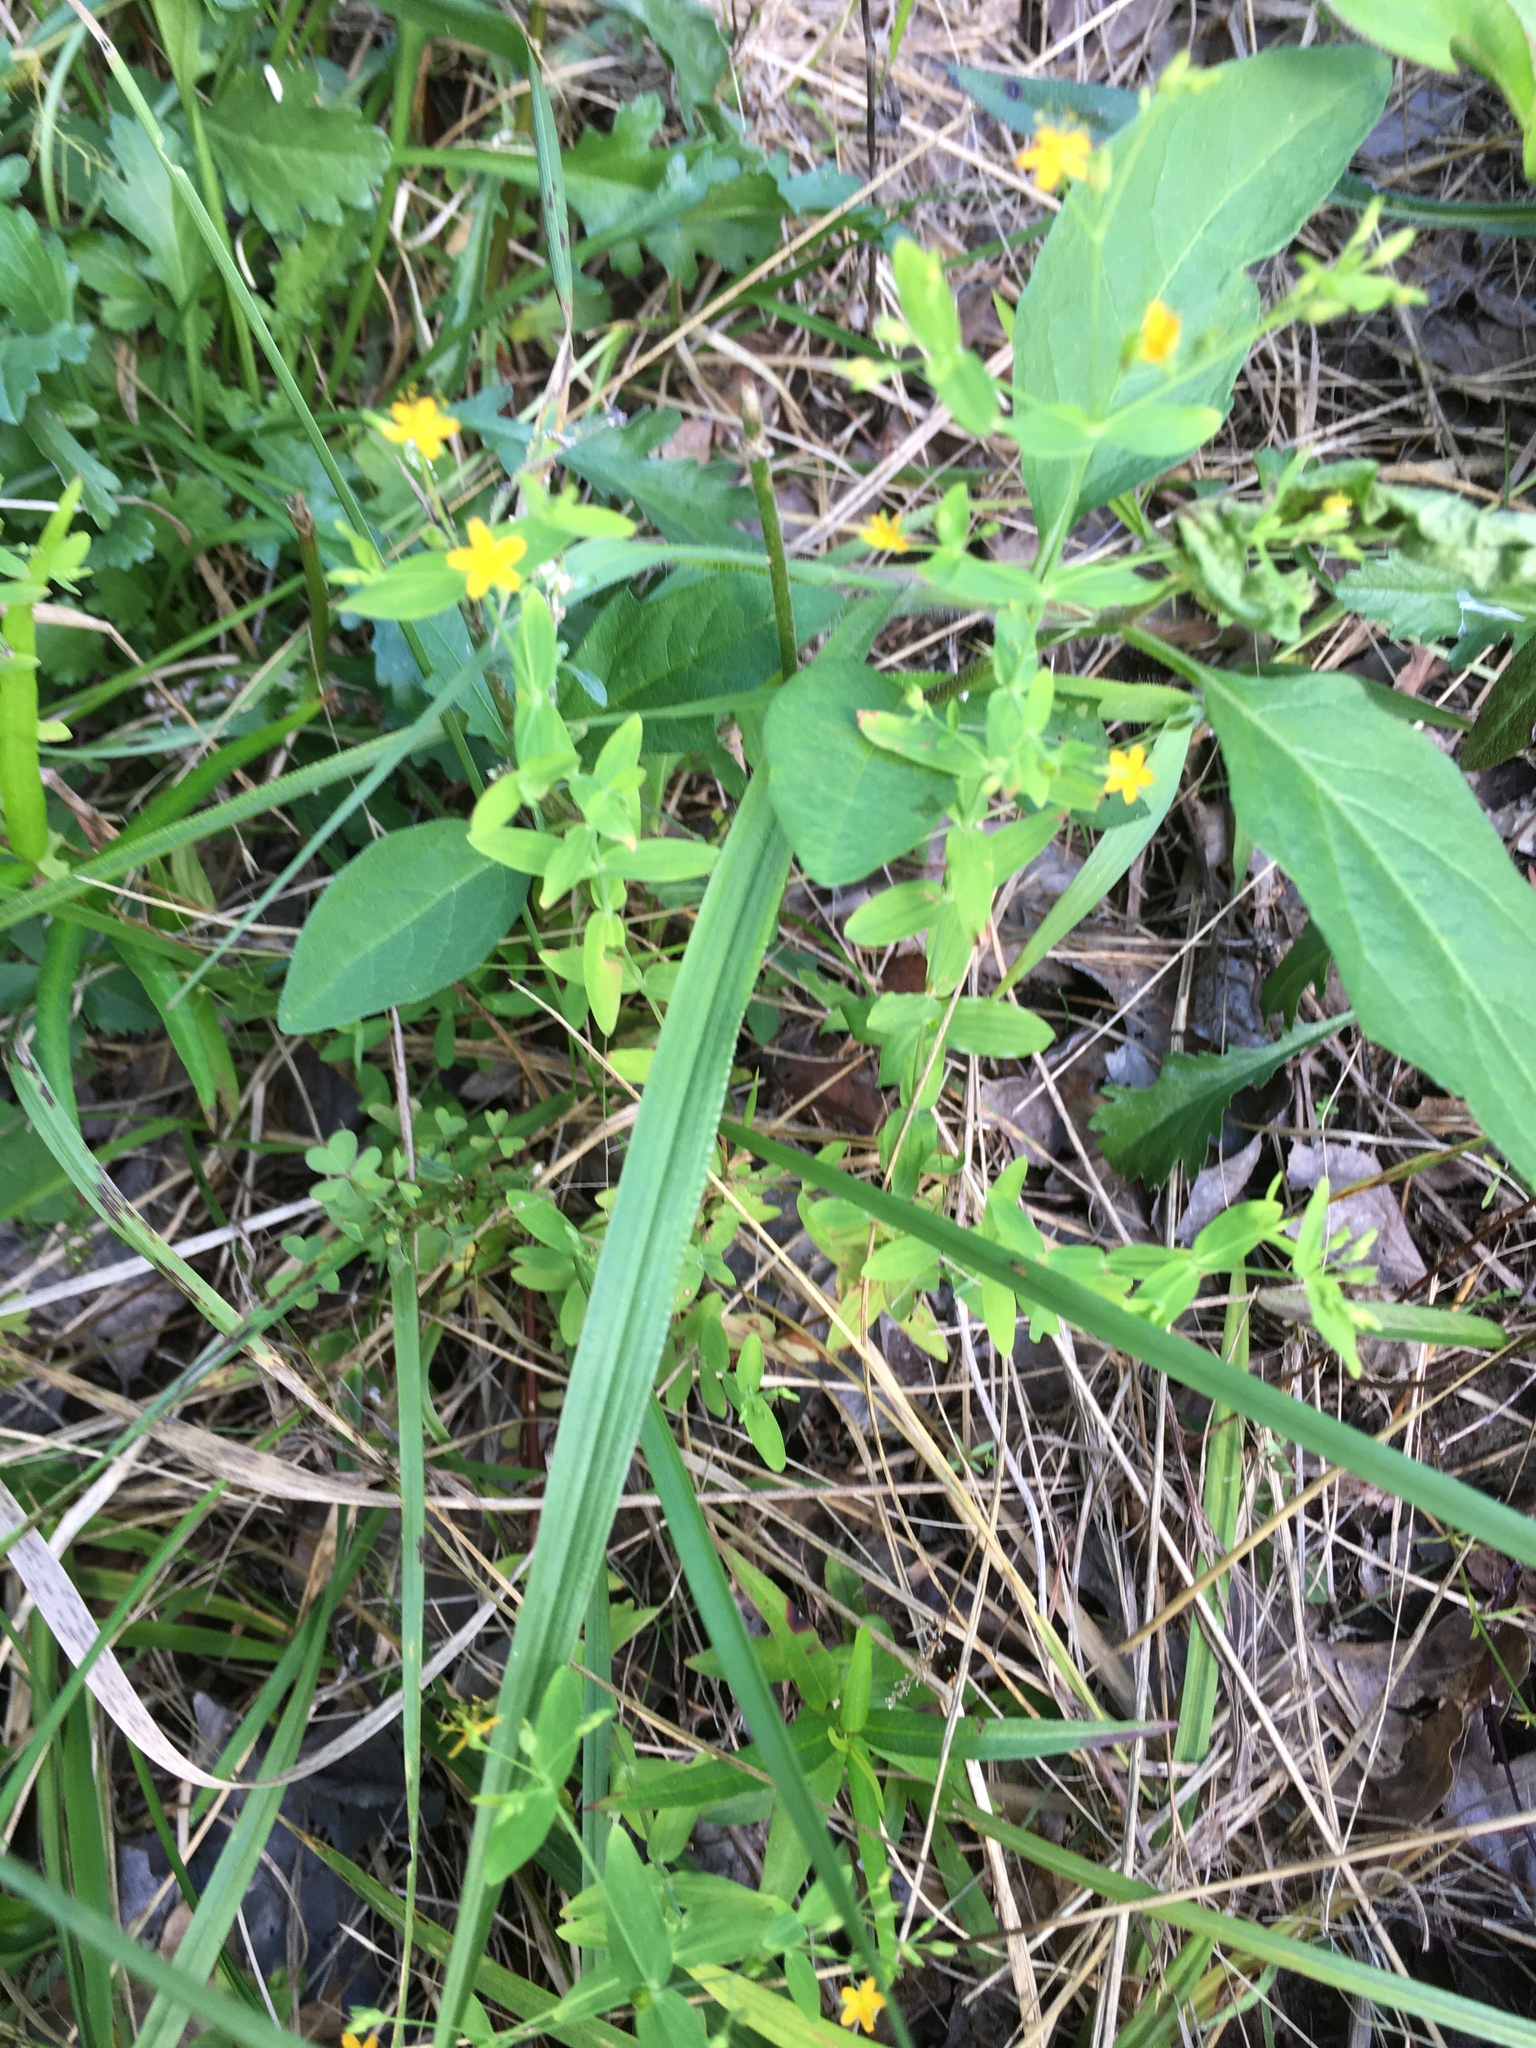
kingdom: Plantae
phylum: Tracheophyta
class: Magnoliopsida
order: Malpighiales
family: Hypericaceae
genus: Hypericum
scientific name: Hypericum mutilum
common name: Dwarf st. john's-wort
